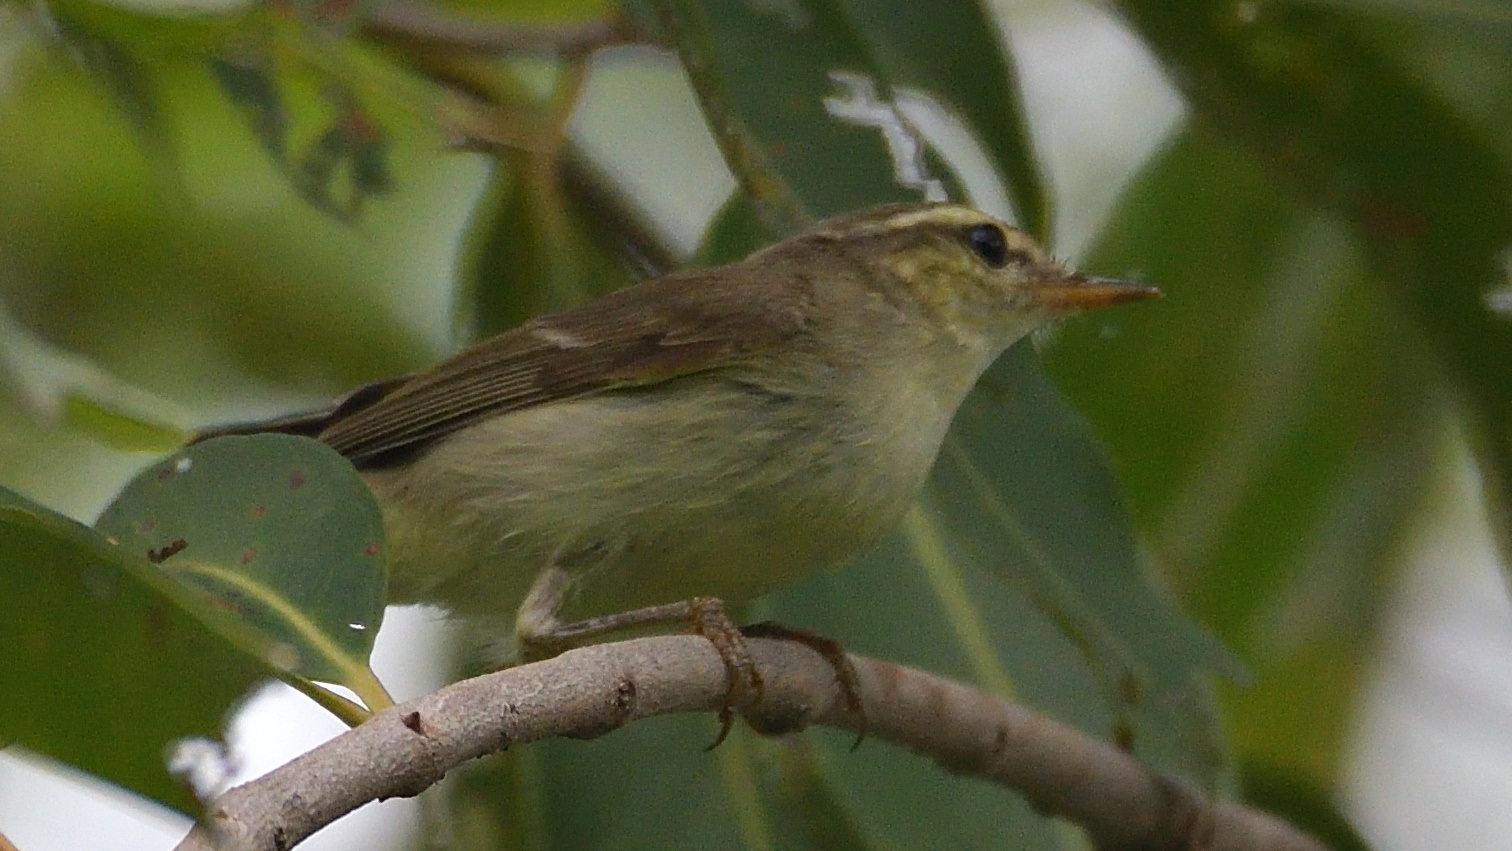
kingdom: Animalia
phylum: Chordata
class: Aves
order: Passeriformes
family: Phylloscopidae
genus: Phylloscopus
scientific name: Phylloscopus trochiloides
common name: Greenish warbler
